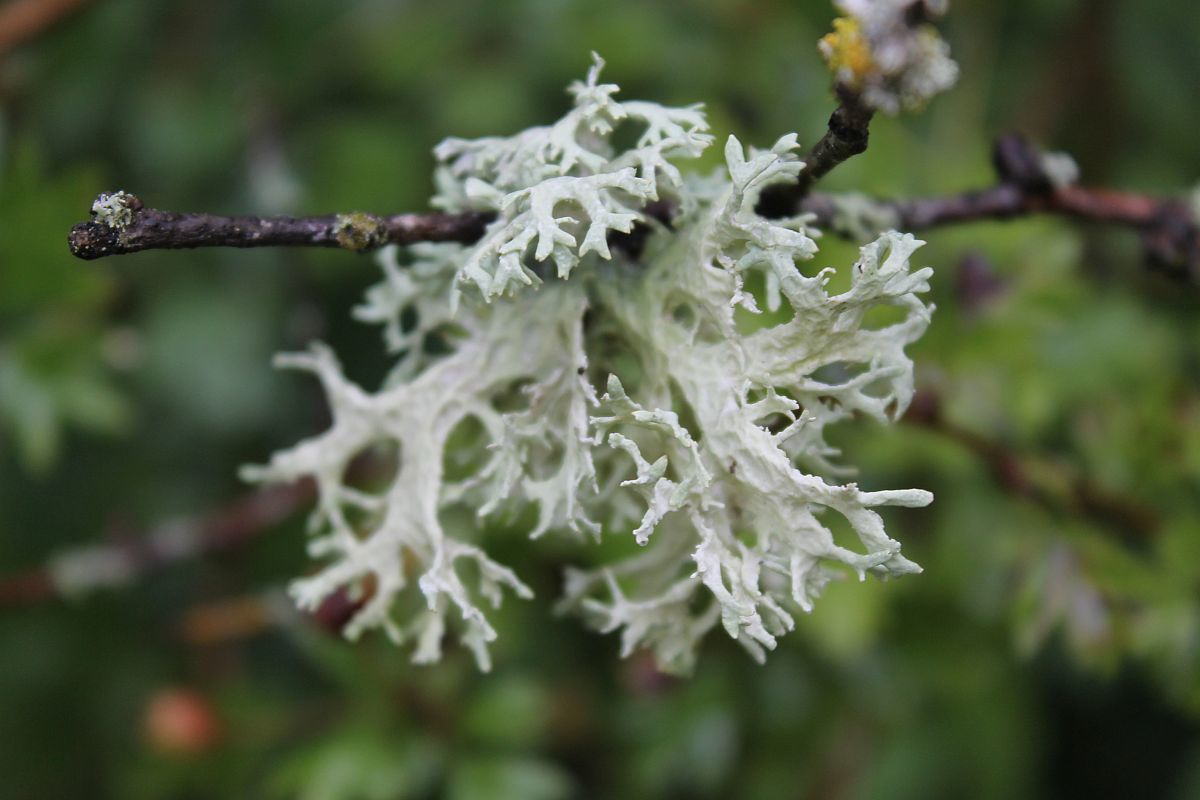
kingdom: Fungi
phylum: Ascomycota
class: Lecanoromycetes
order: Lecanorales
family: Parmeliaceae
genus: Evernia
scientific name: Evernia prunastri
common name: Oak moss
